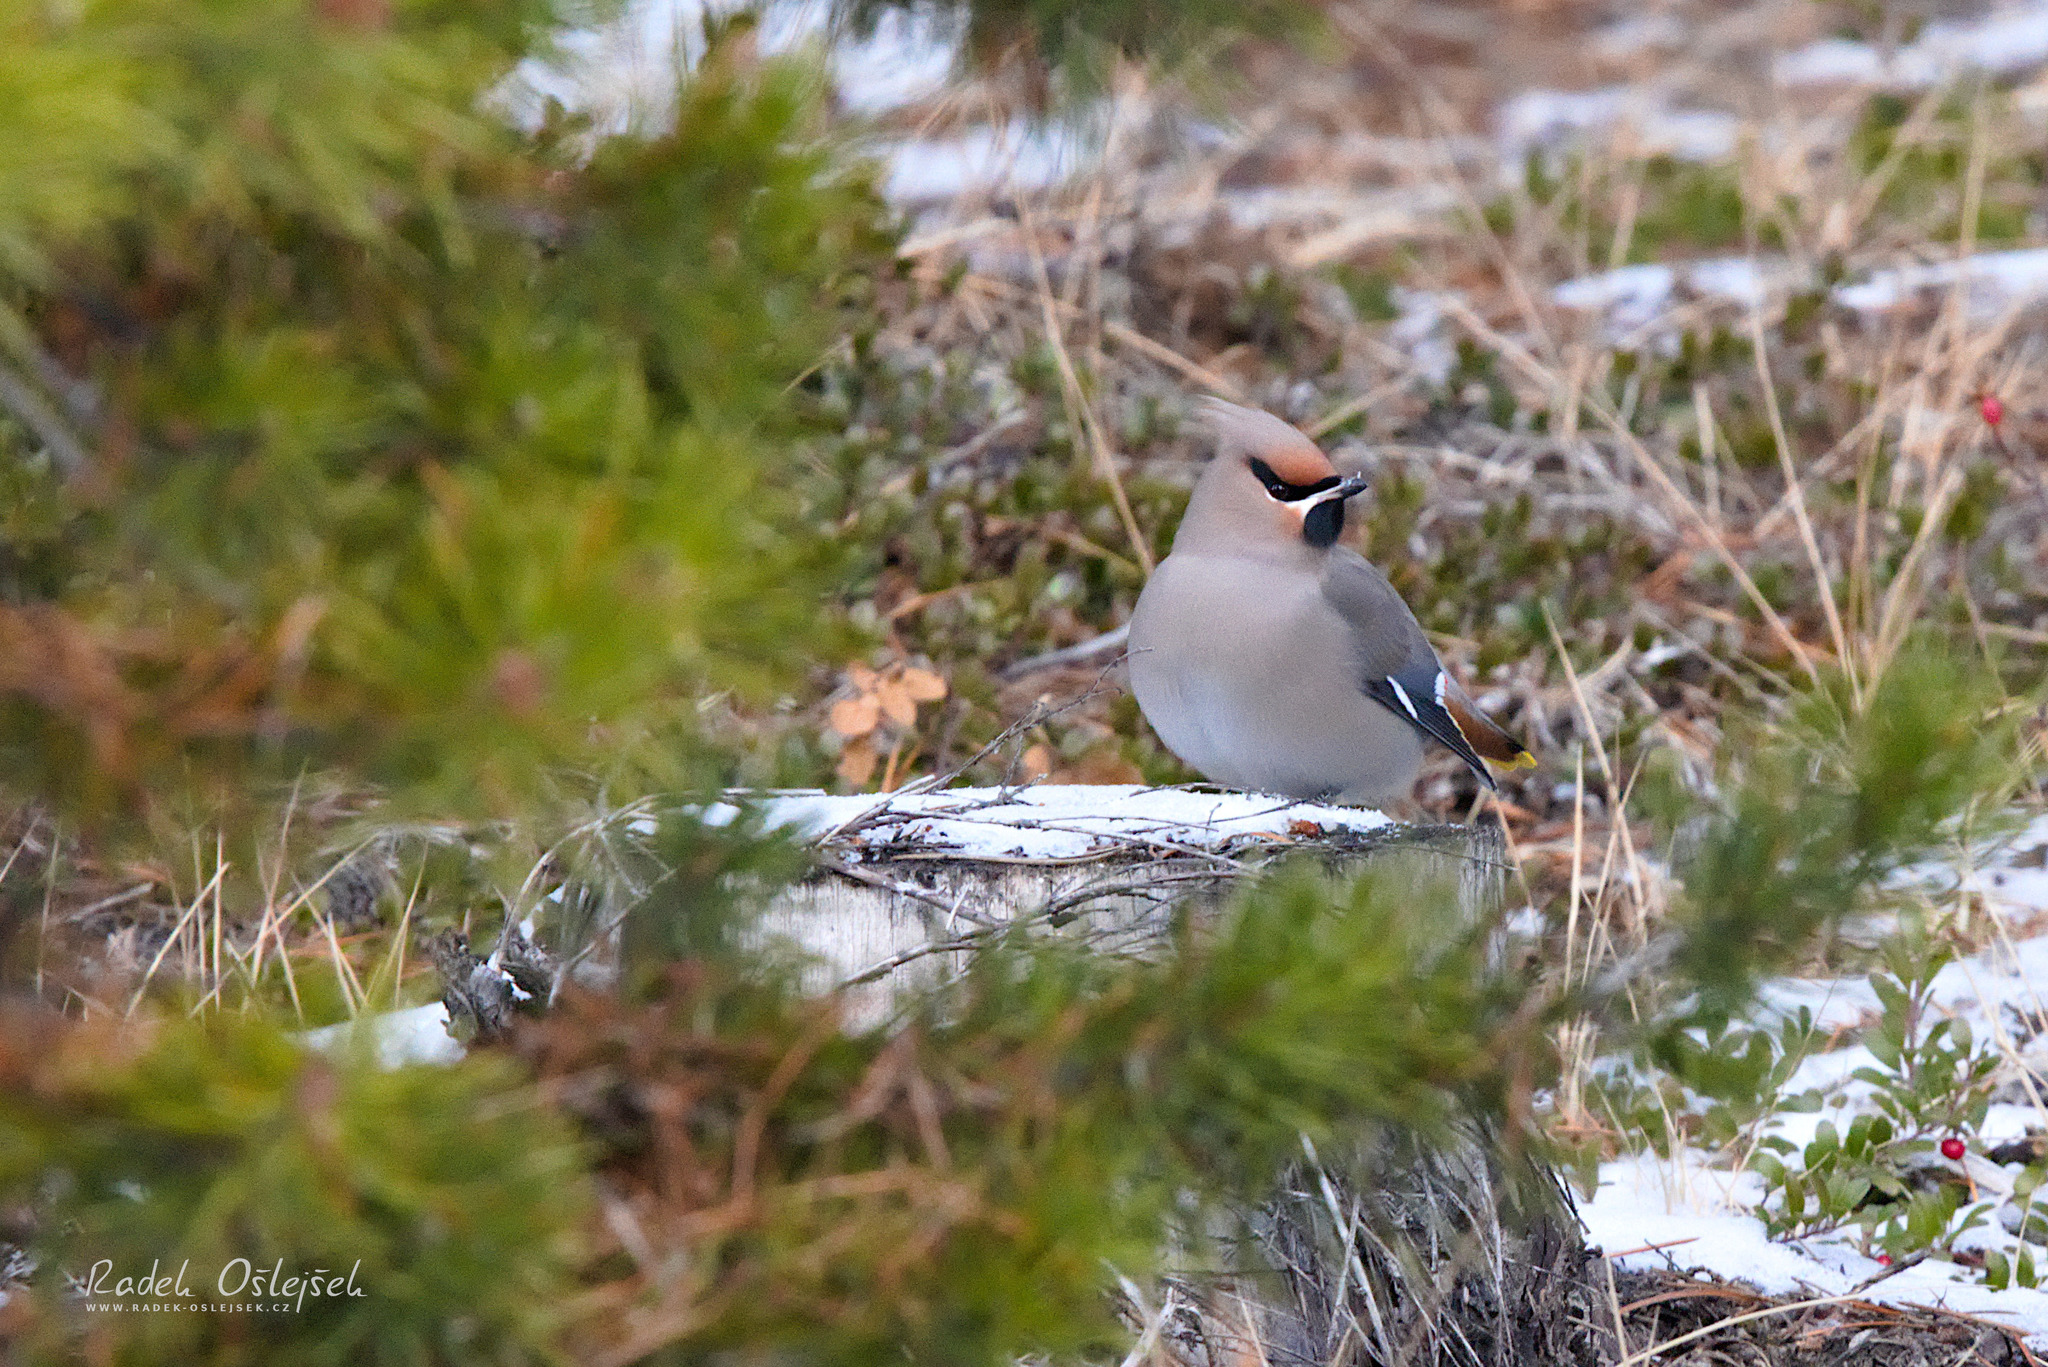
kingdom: Animalia
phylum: Chordata
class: Aves
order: Passeriformes
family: Bombycillidae
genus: Bombycilla
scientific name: Bombycilla garrulus
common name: Bohemian waxwing
